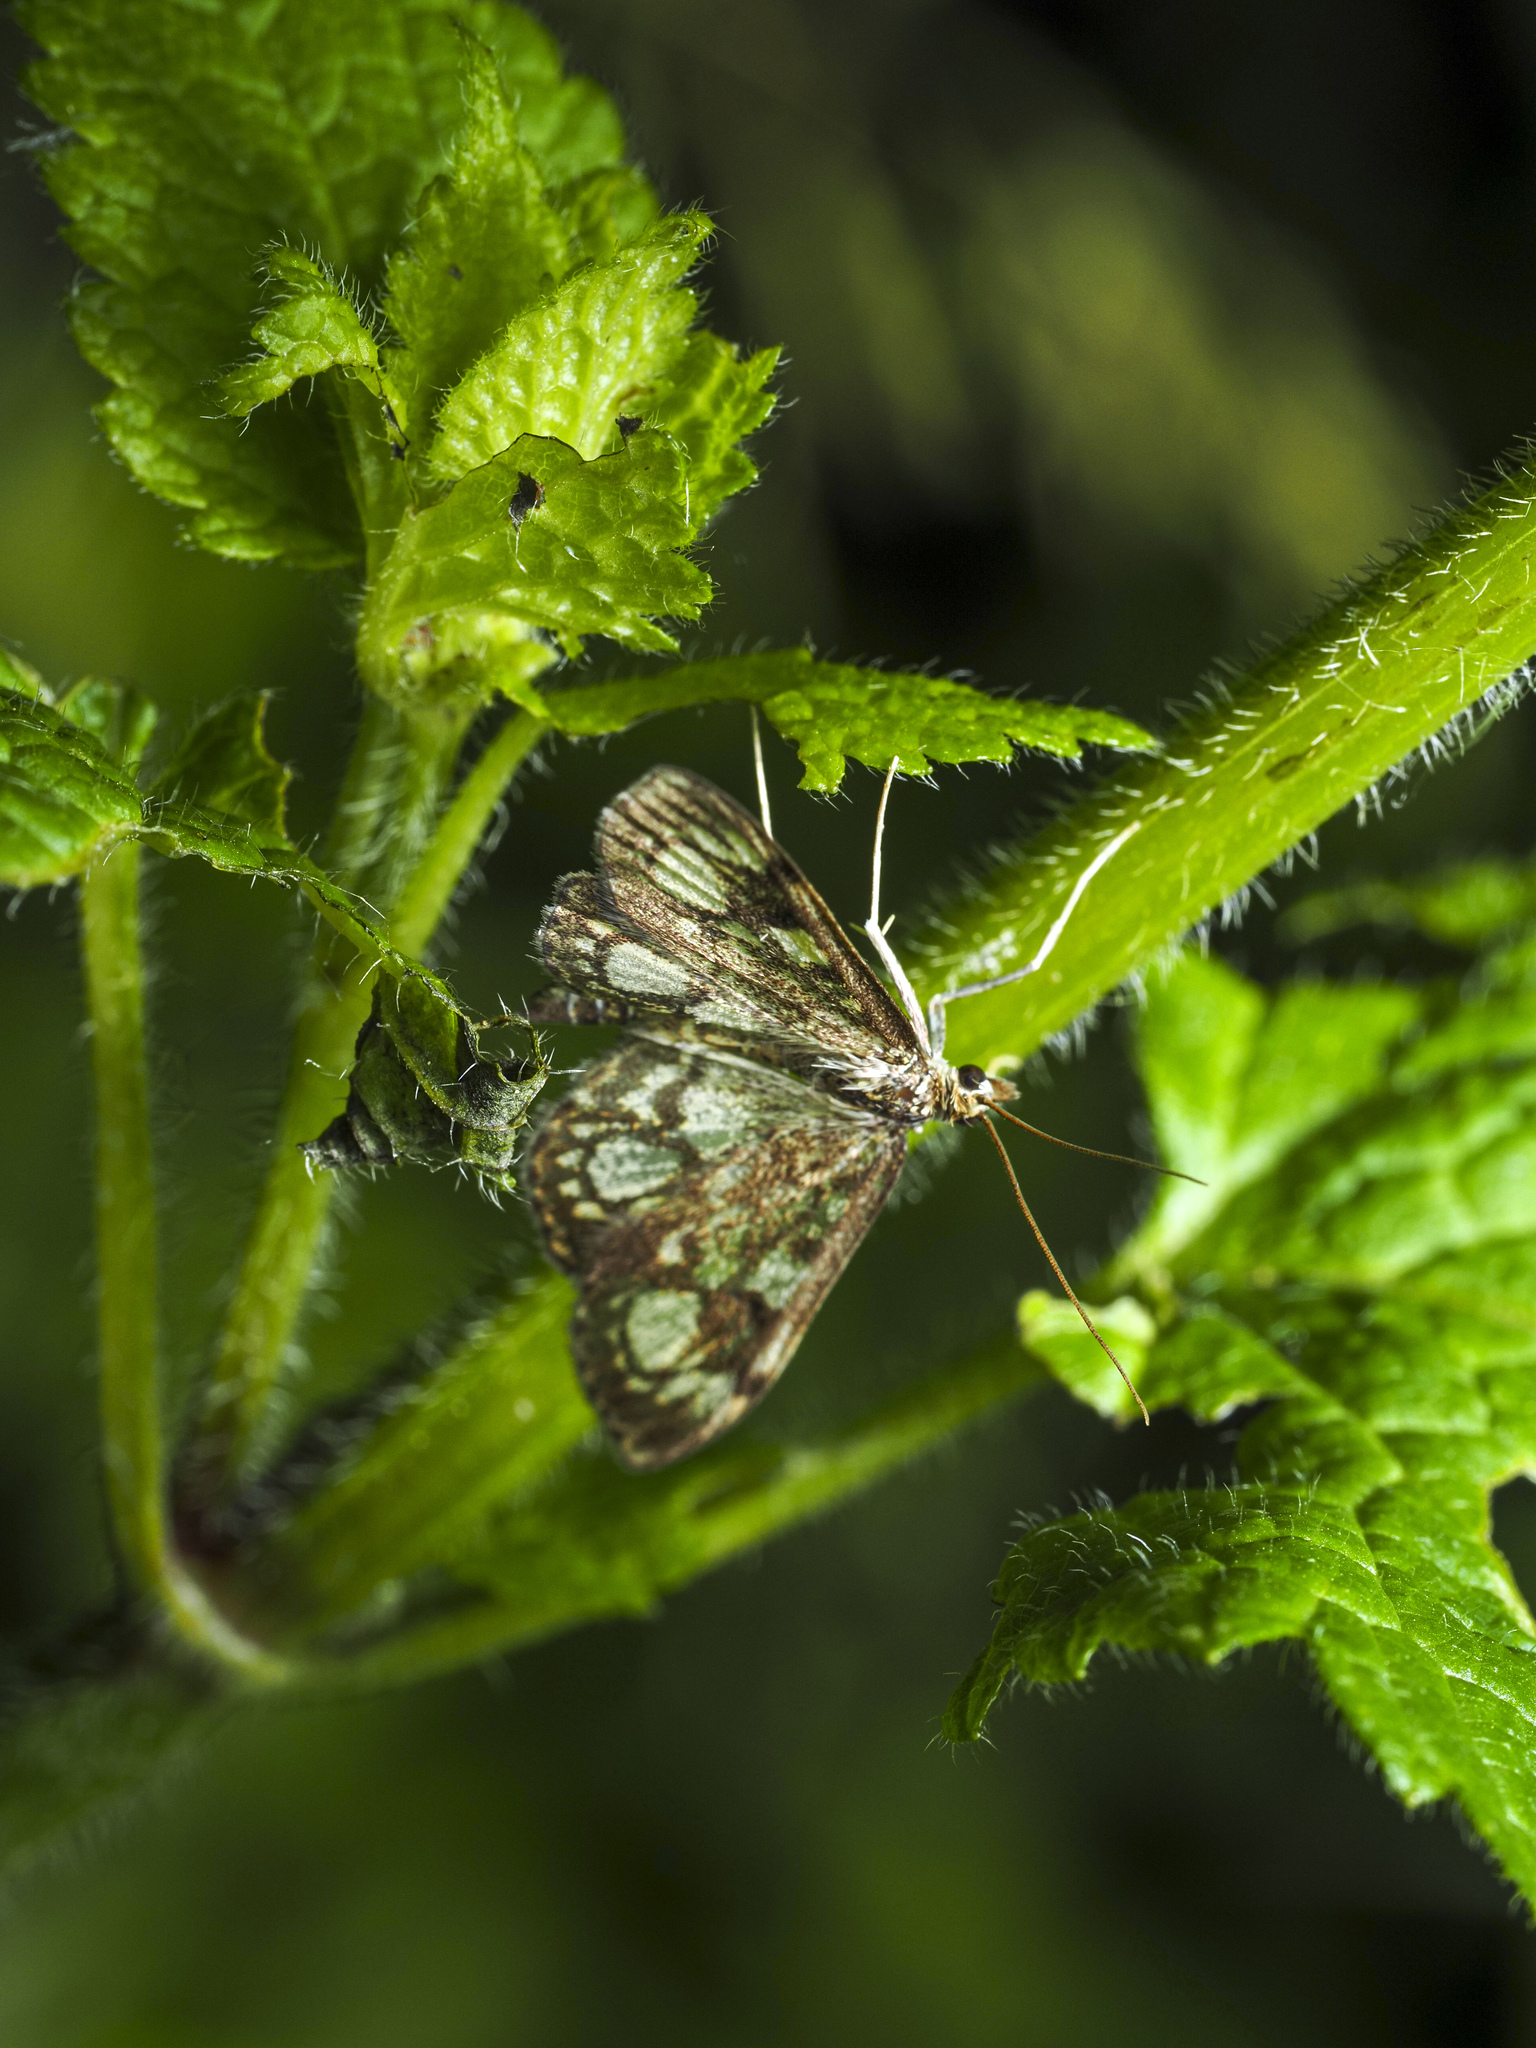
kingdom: Animalia
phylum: Arthropoda
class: Insecta
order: Lepidoptera
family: Crambidae
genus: Anania
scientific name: Anania coronata
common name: Elder pearl
